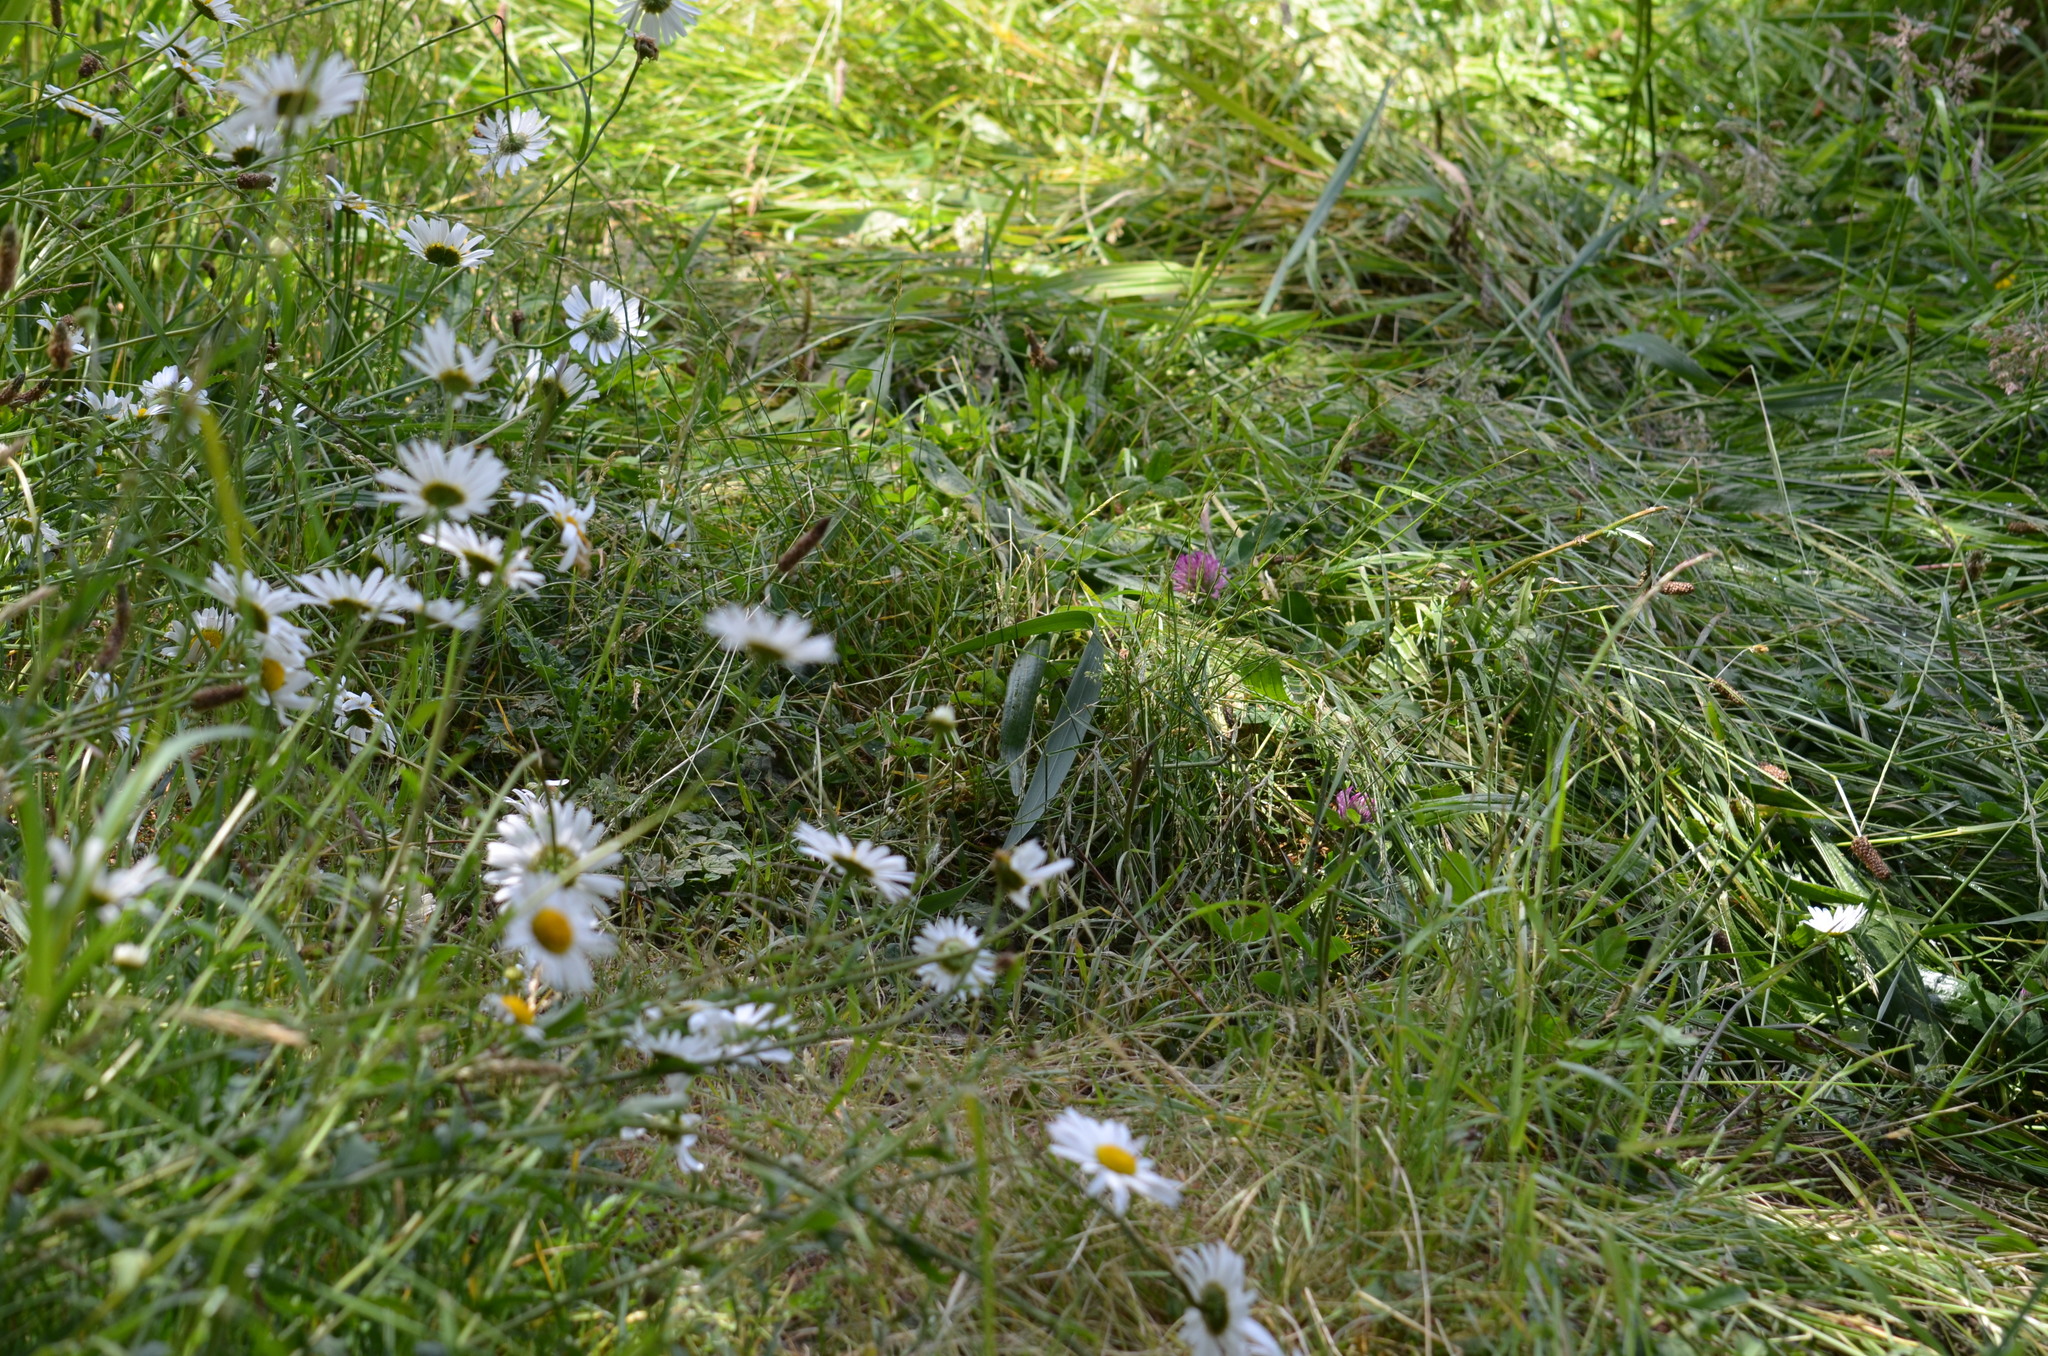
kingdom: Plantae
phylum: Tracheophyta
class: Magnoliopsida
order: Fabales
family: Fabaceae
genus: Trifolium
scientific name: Trifolium pratense
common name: Red clover
